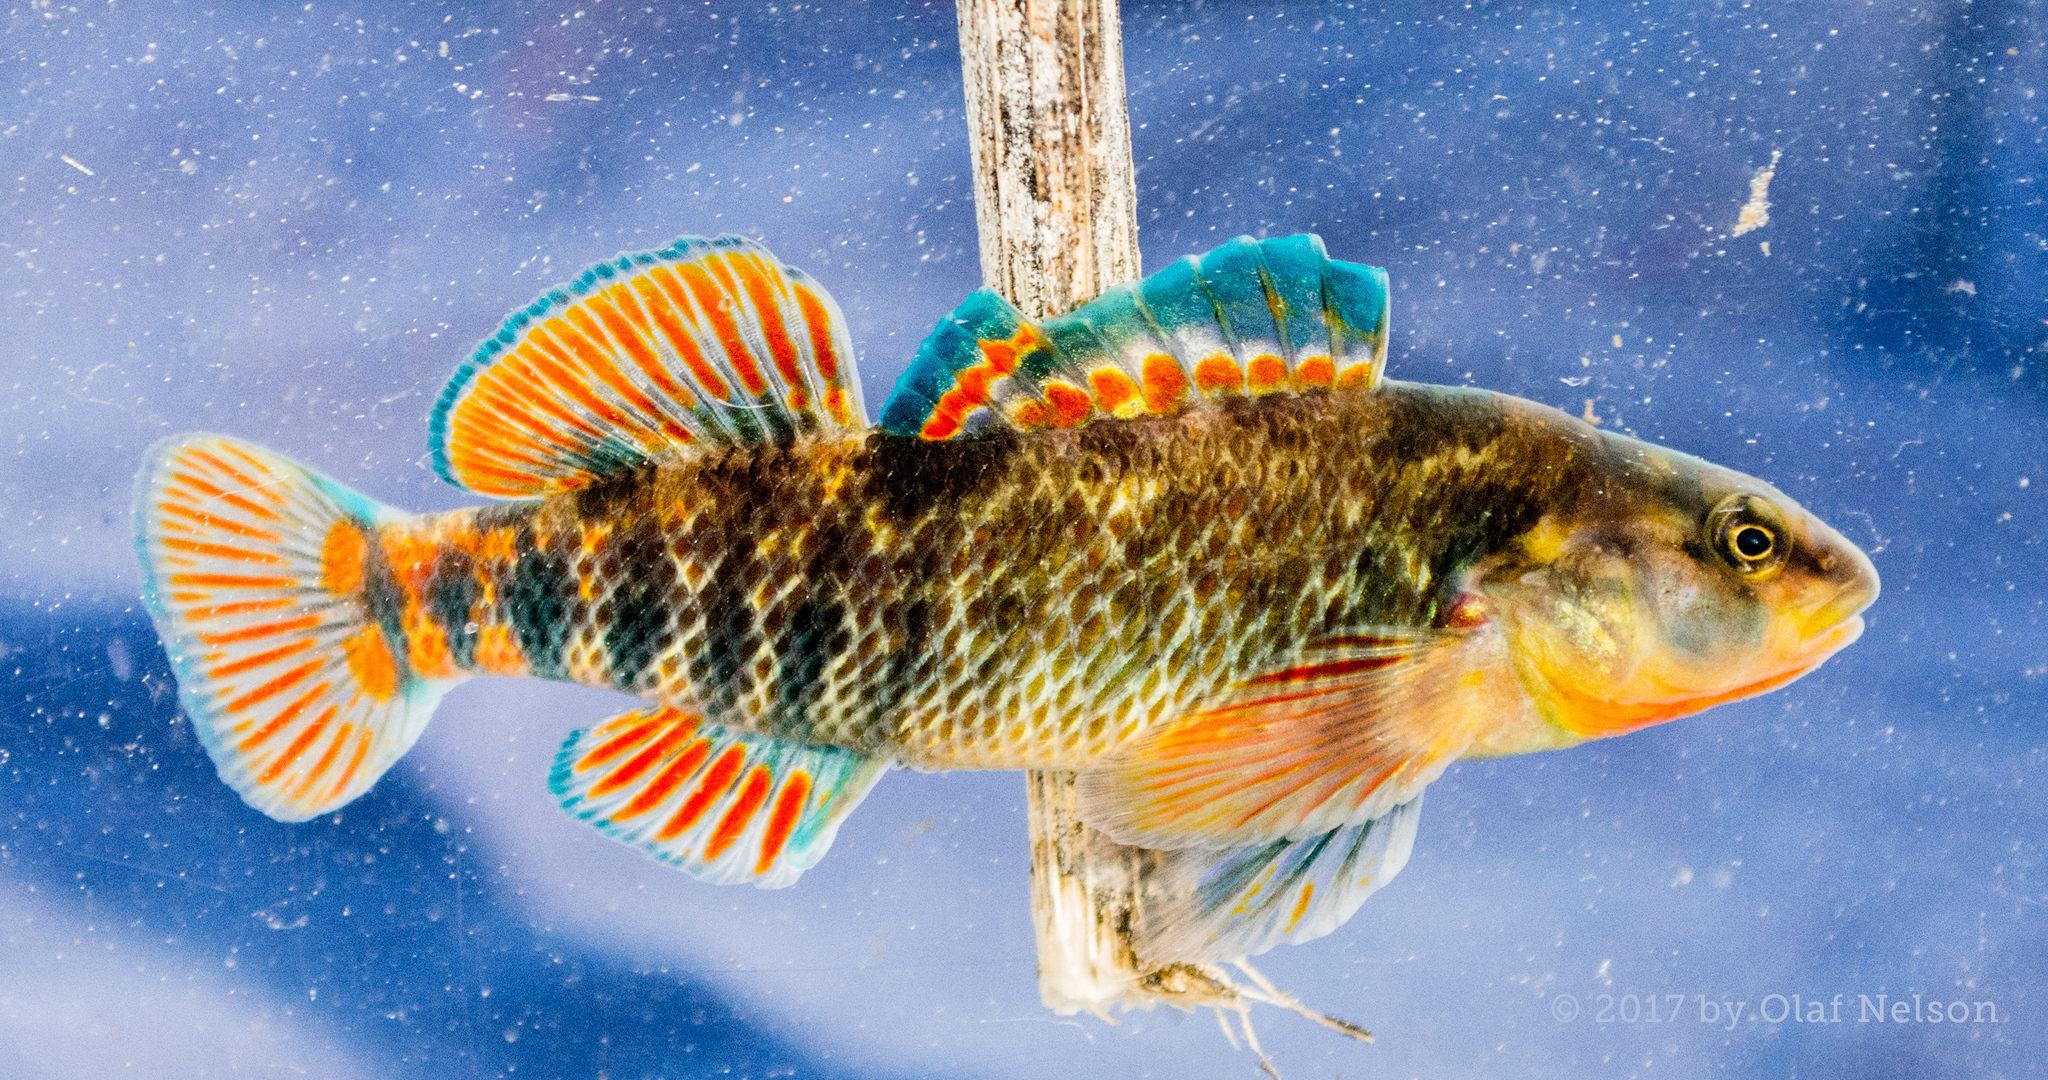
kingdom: Animalia
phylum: Chordata
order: Perciformes
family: Percidae
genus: Etheostoma
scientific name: Etheostoma caeruleum
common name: Rainbow darter
